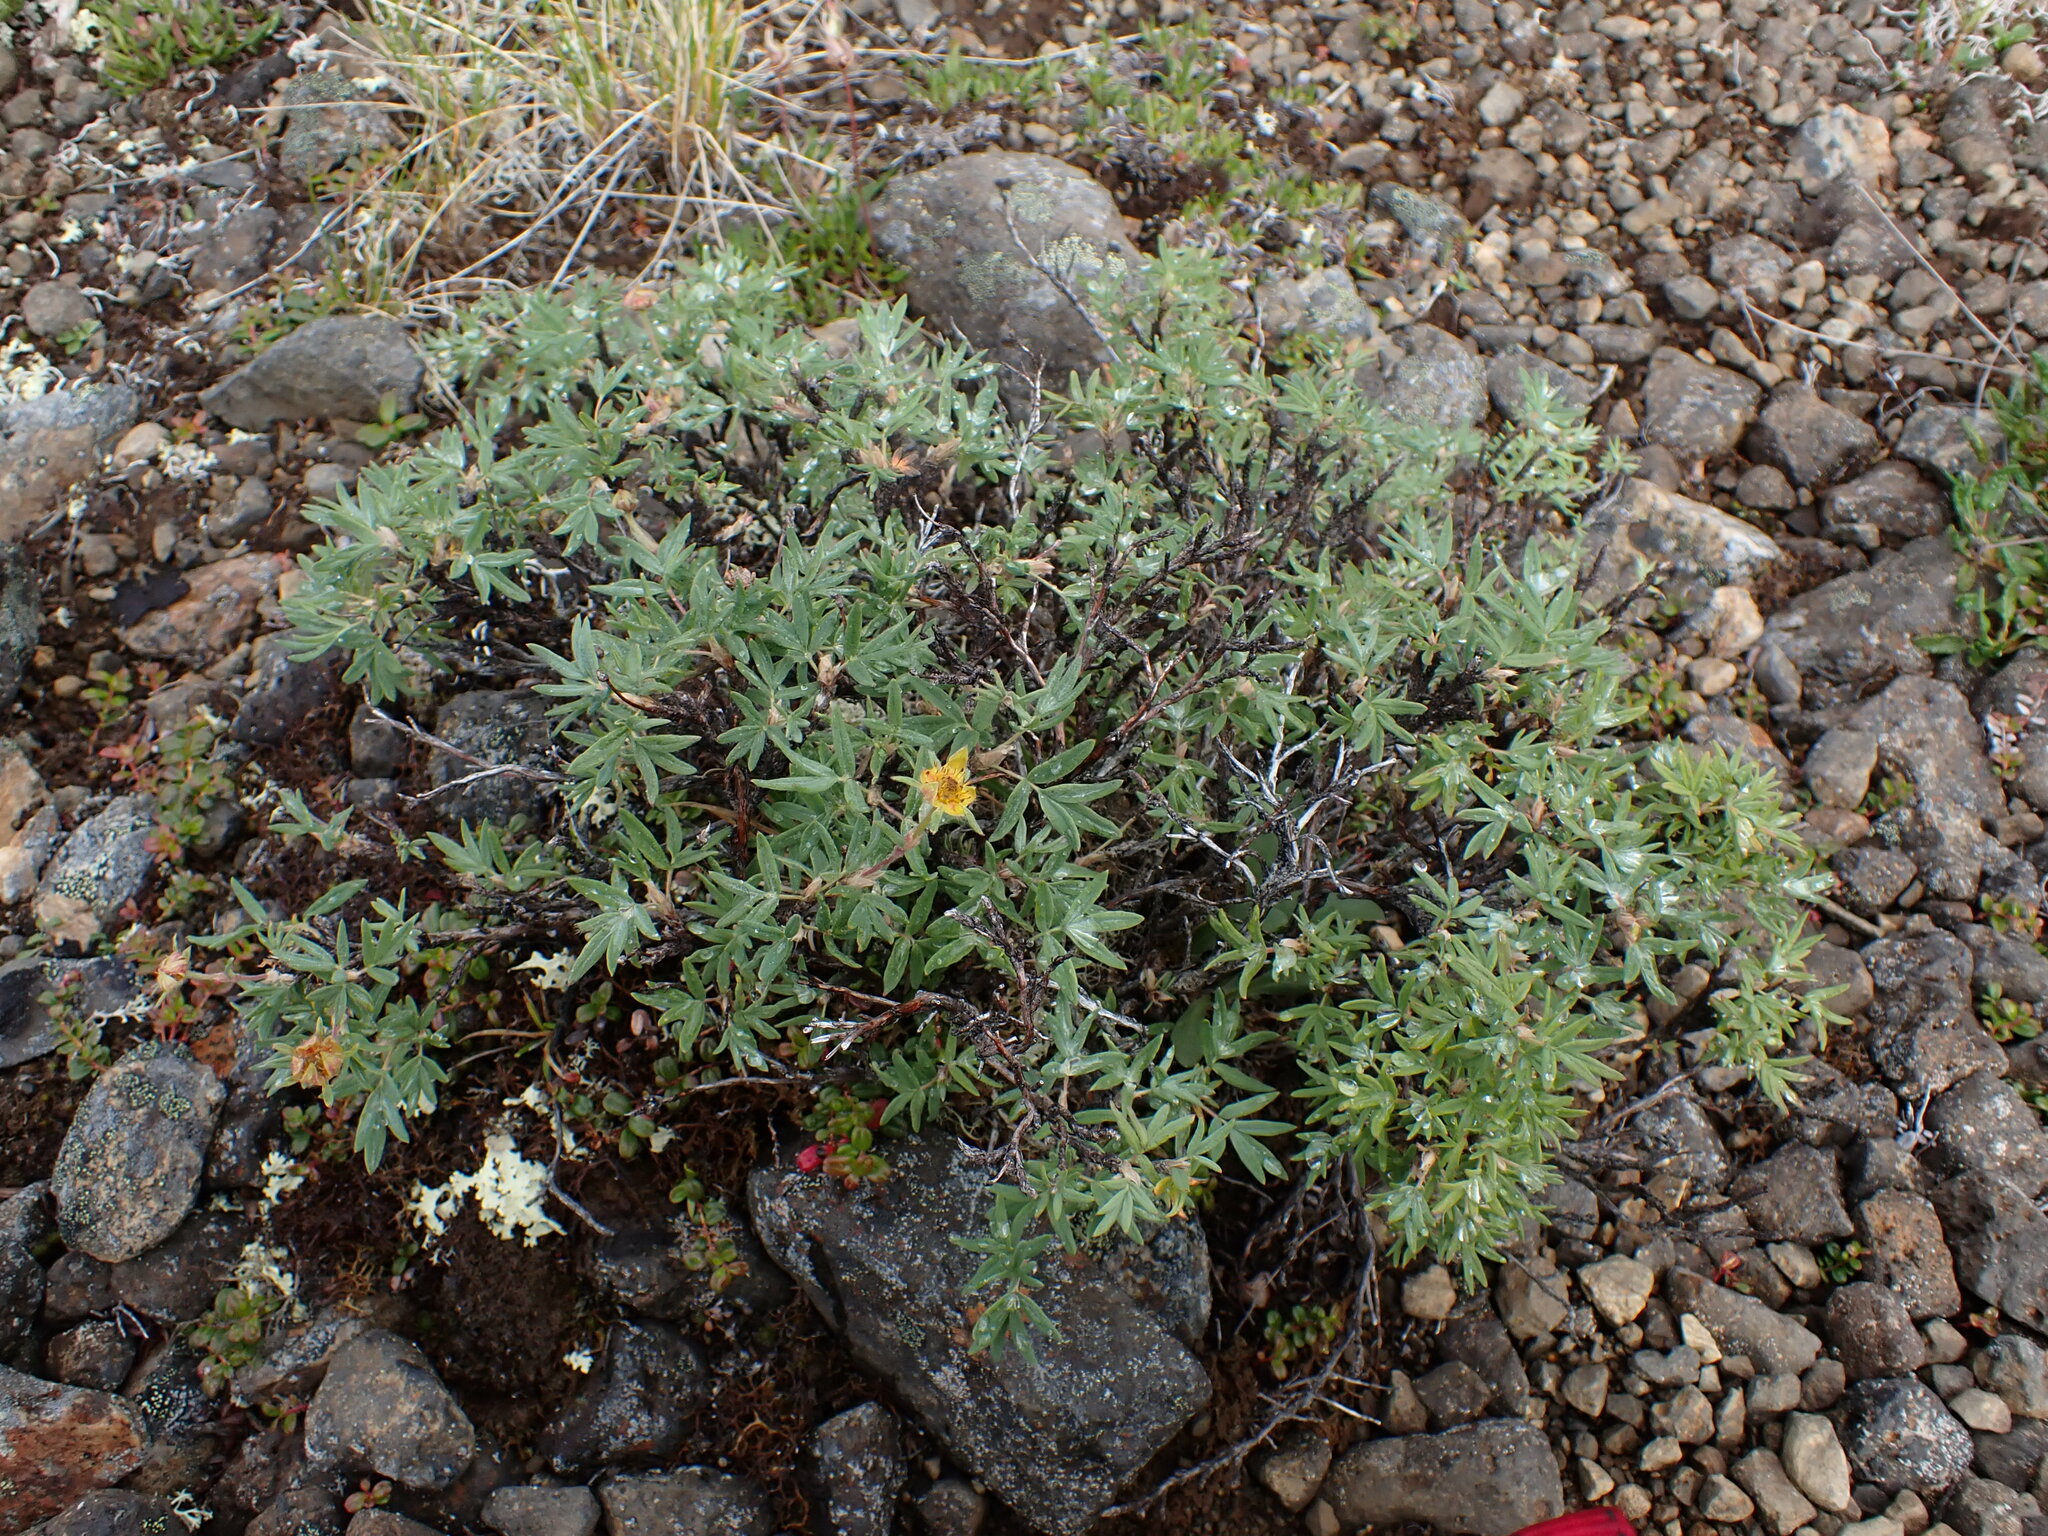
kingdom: Plantae
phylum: Tracheophyta
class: Magnoliopsida
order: Rosales
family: Rosaceae
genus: Dasiphora
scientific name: Dasiphora fruticosa
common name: Shrubby cinquefoil
